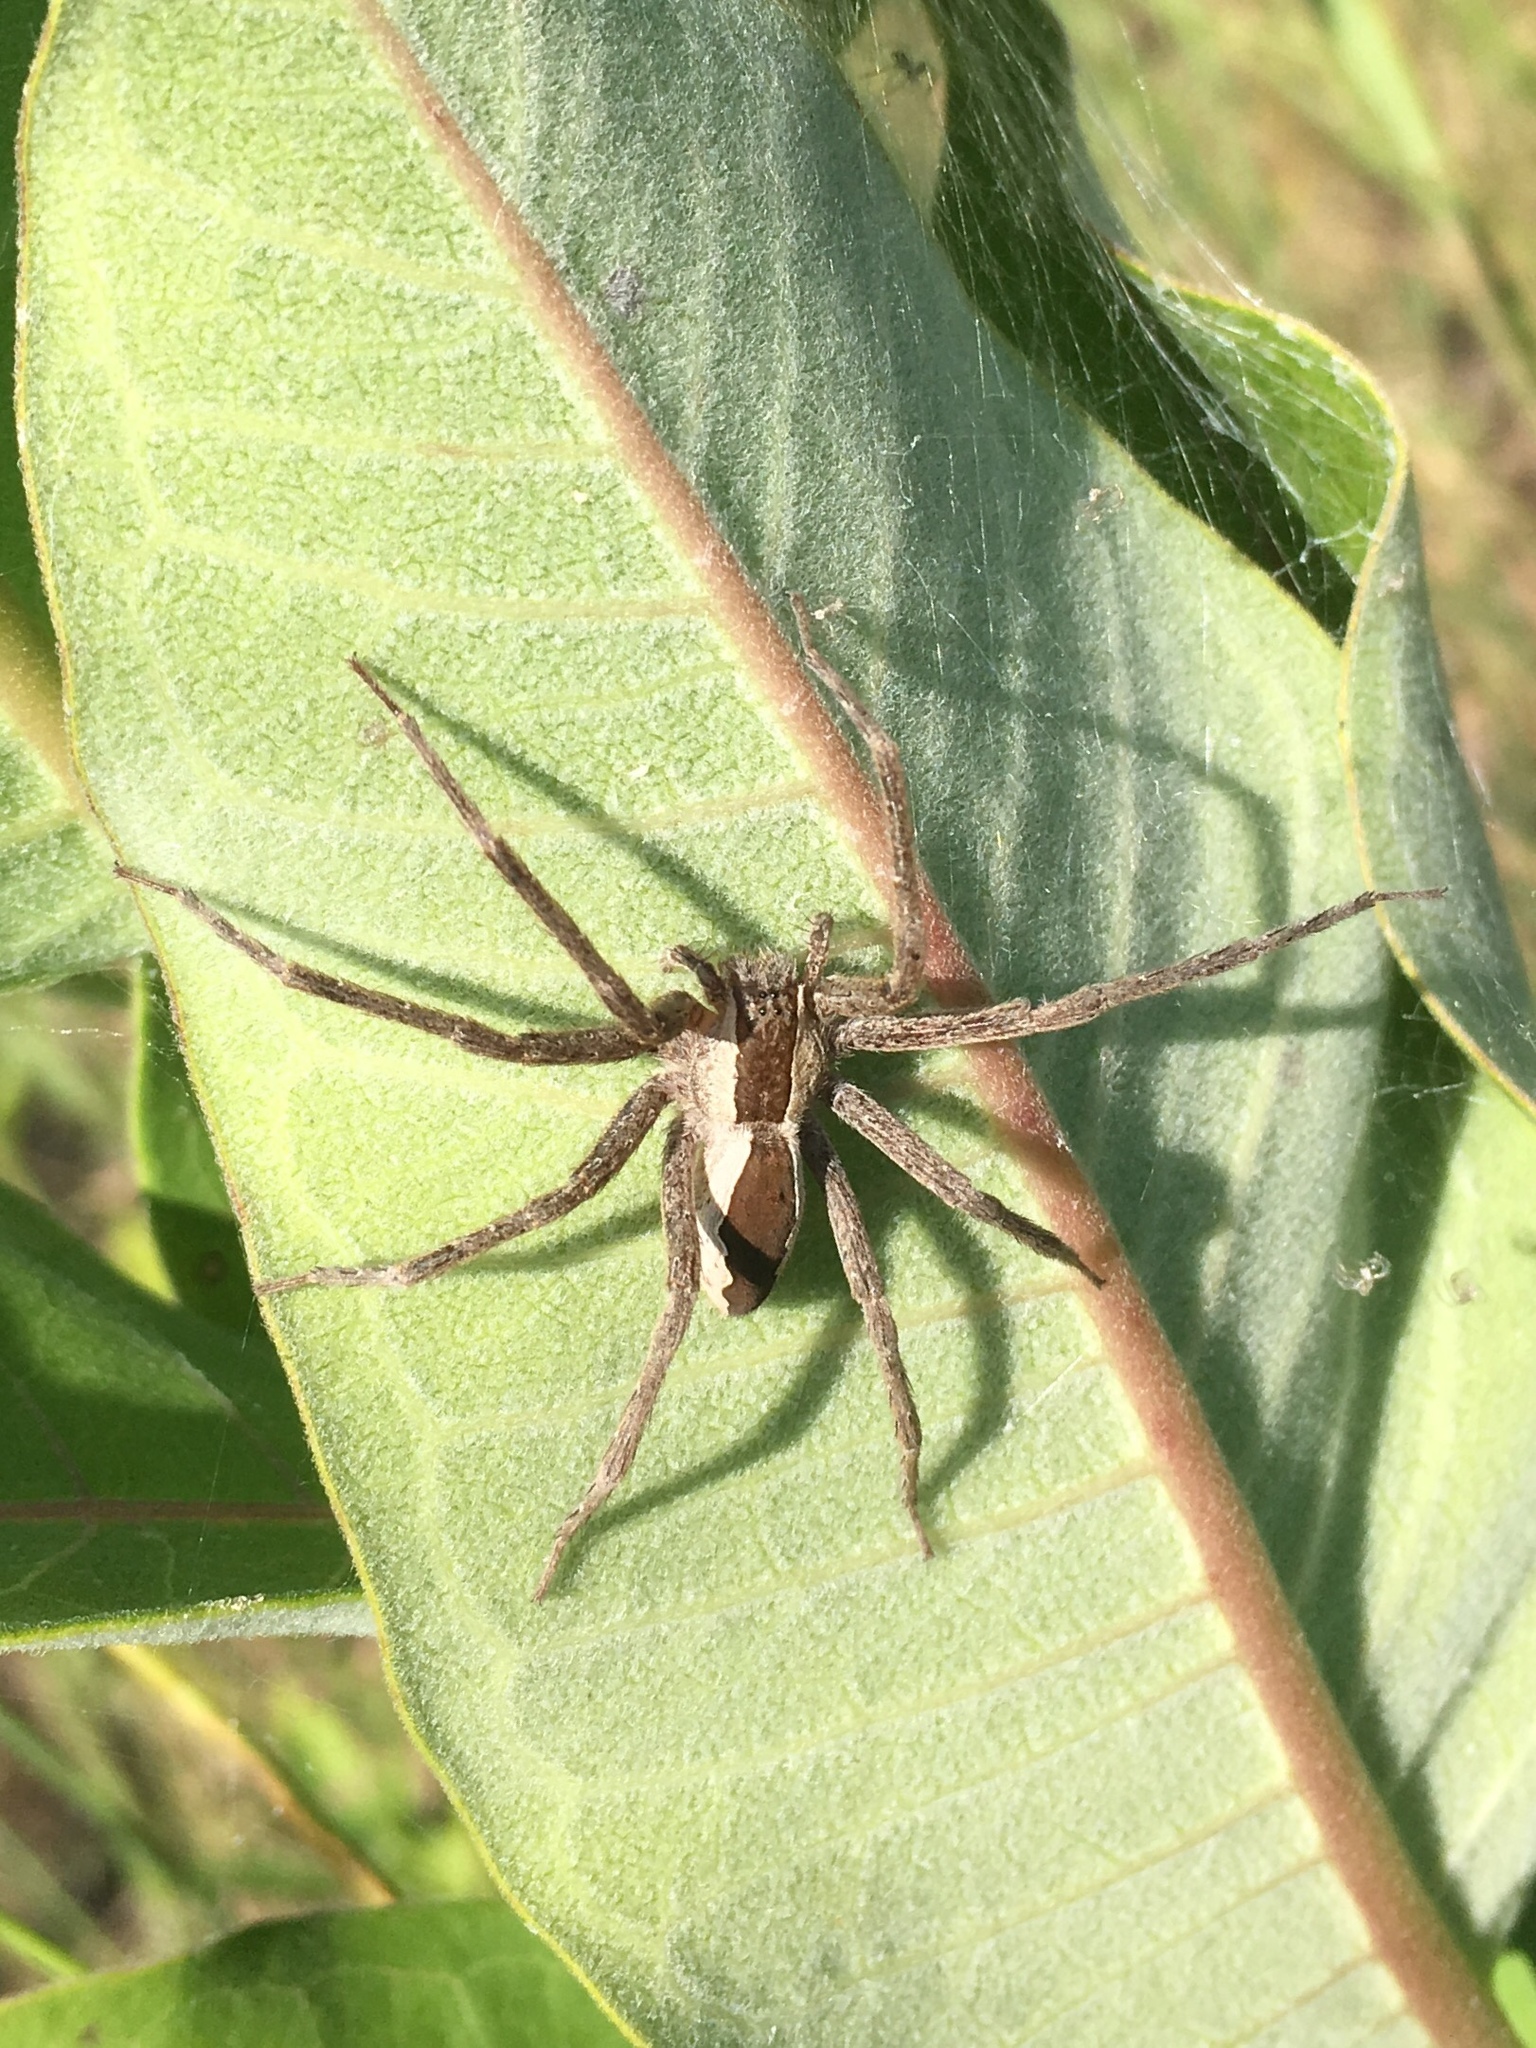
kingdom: Animalia
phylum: Arthropoda
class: Arachnida
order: Araneae
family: Pisauridae
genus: Pisaurina
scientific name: Pisaurina mira
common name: American nursery web spider
